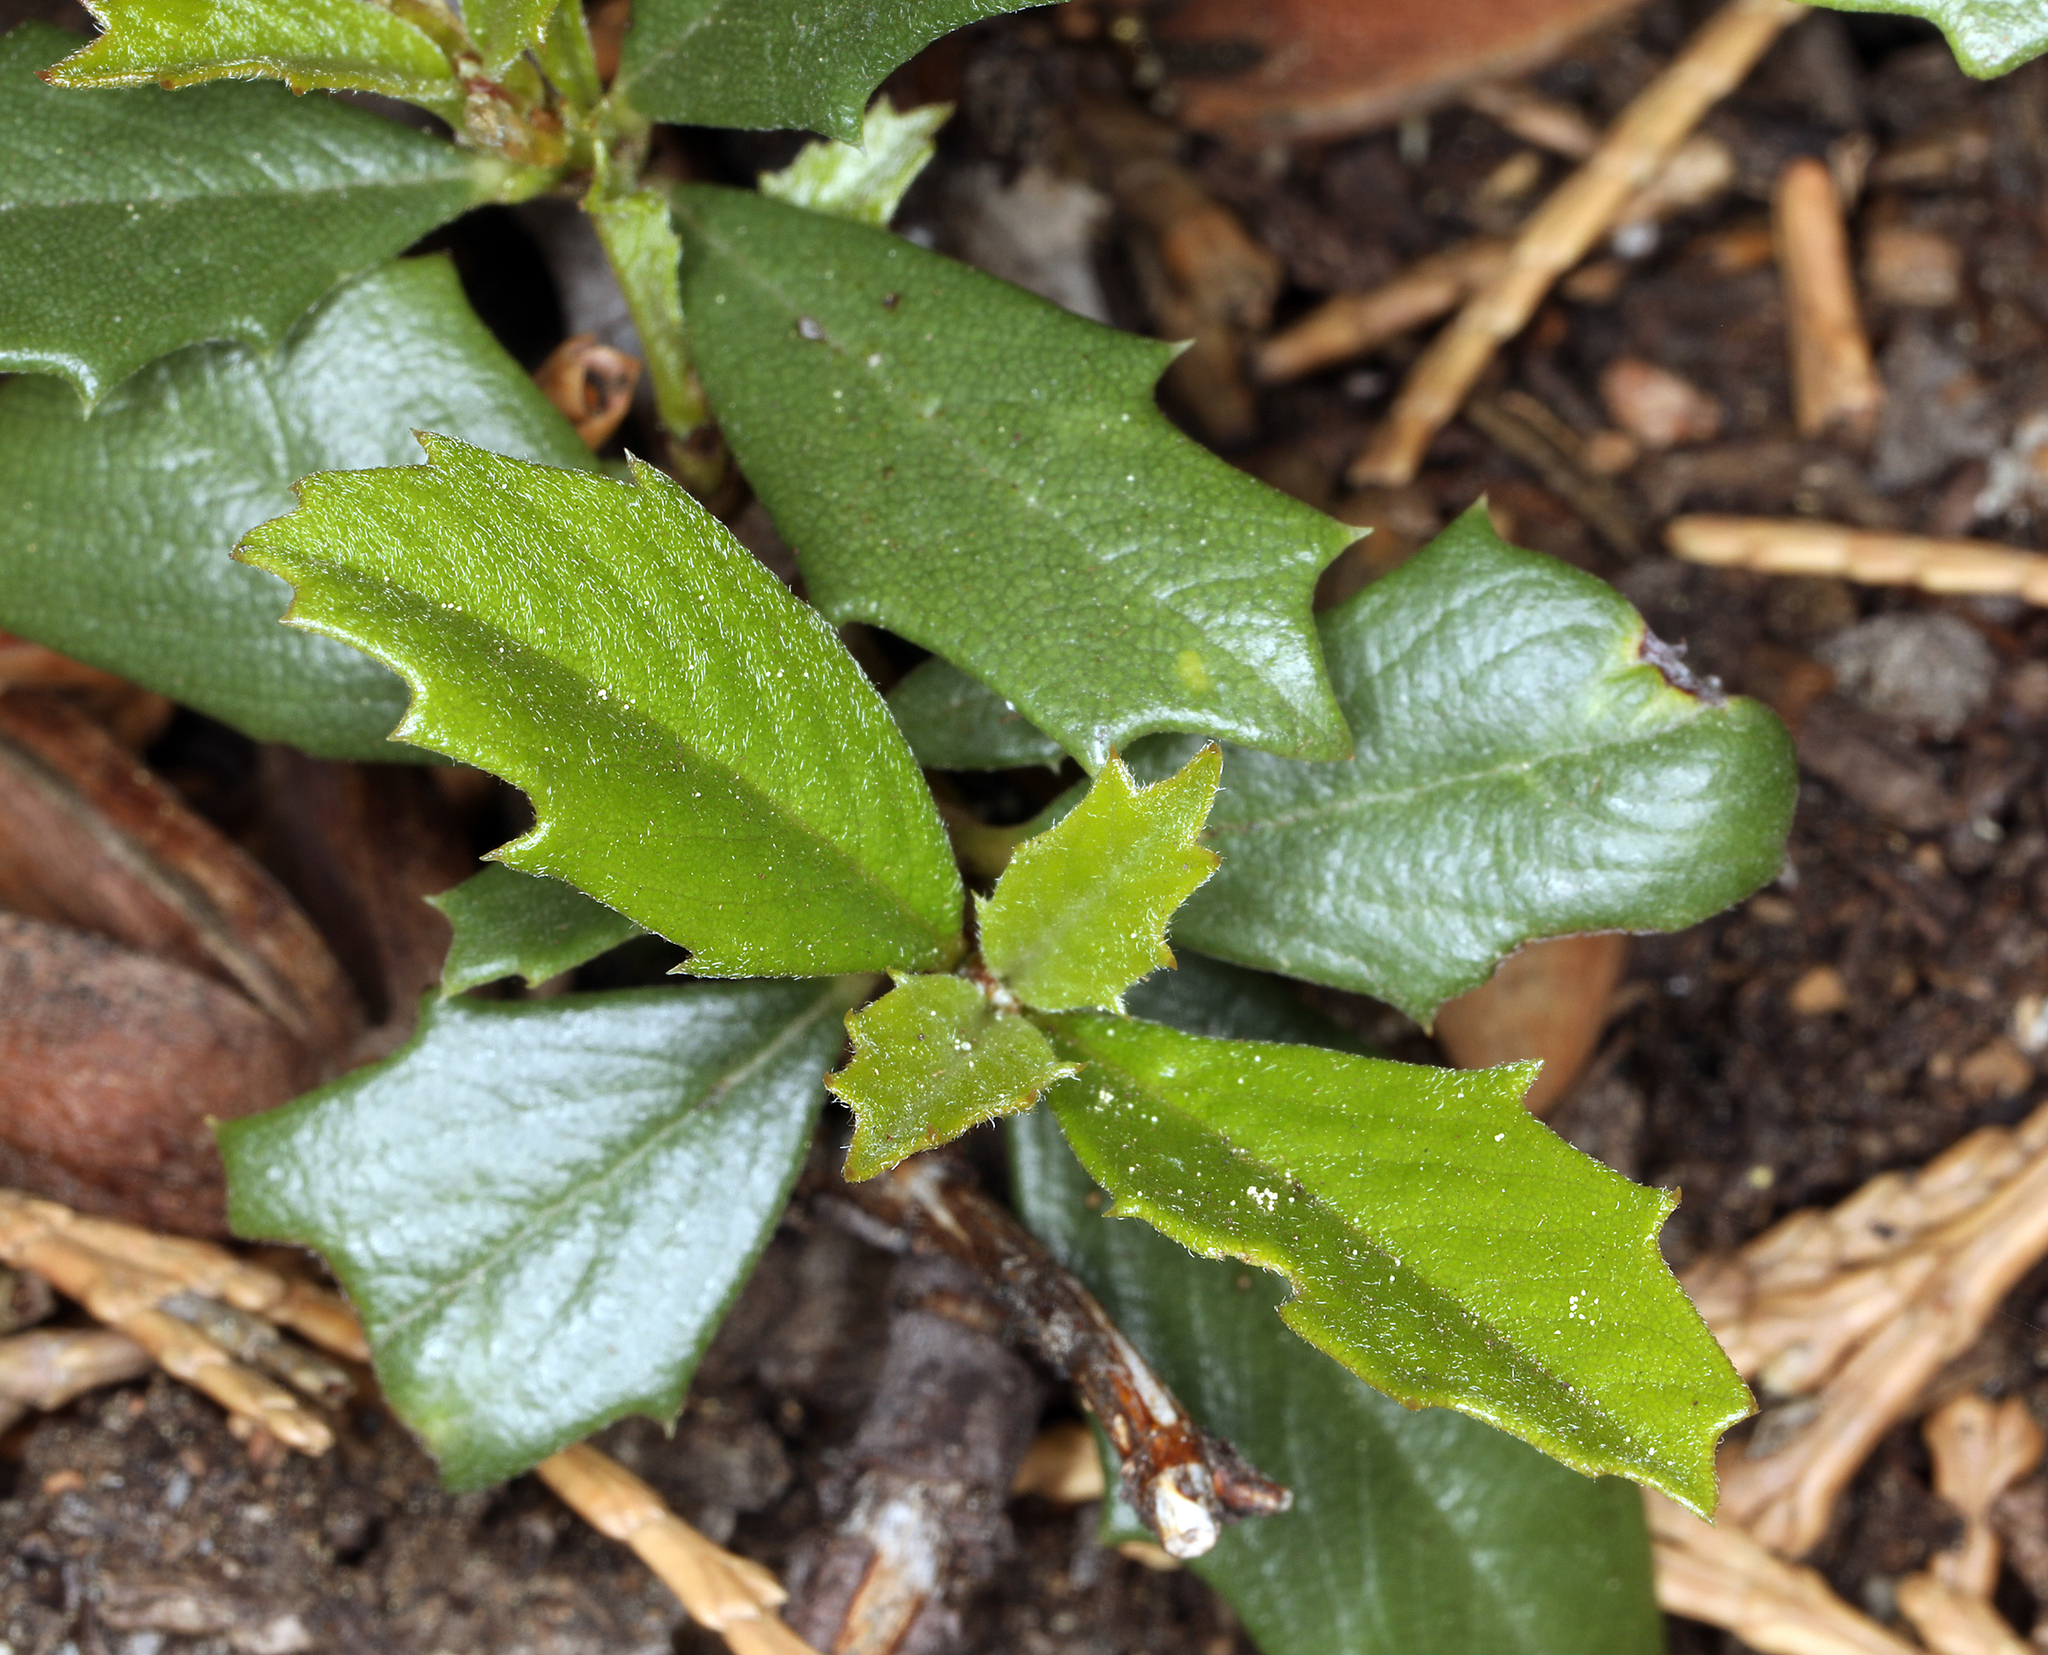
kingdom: Plantae
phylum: Tracheophyta
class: Magnoliopsida
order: Rosales
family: Rhamnaceae
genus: Ceanothus
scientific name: Ceanothus prostratus
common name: Mahala-mat
